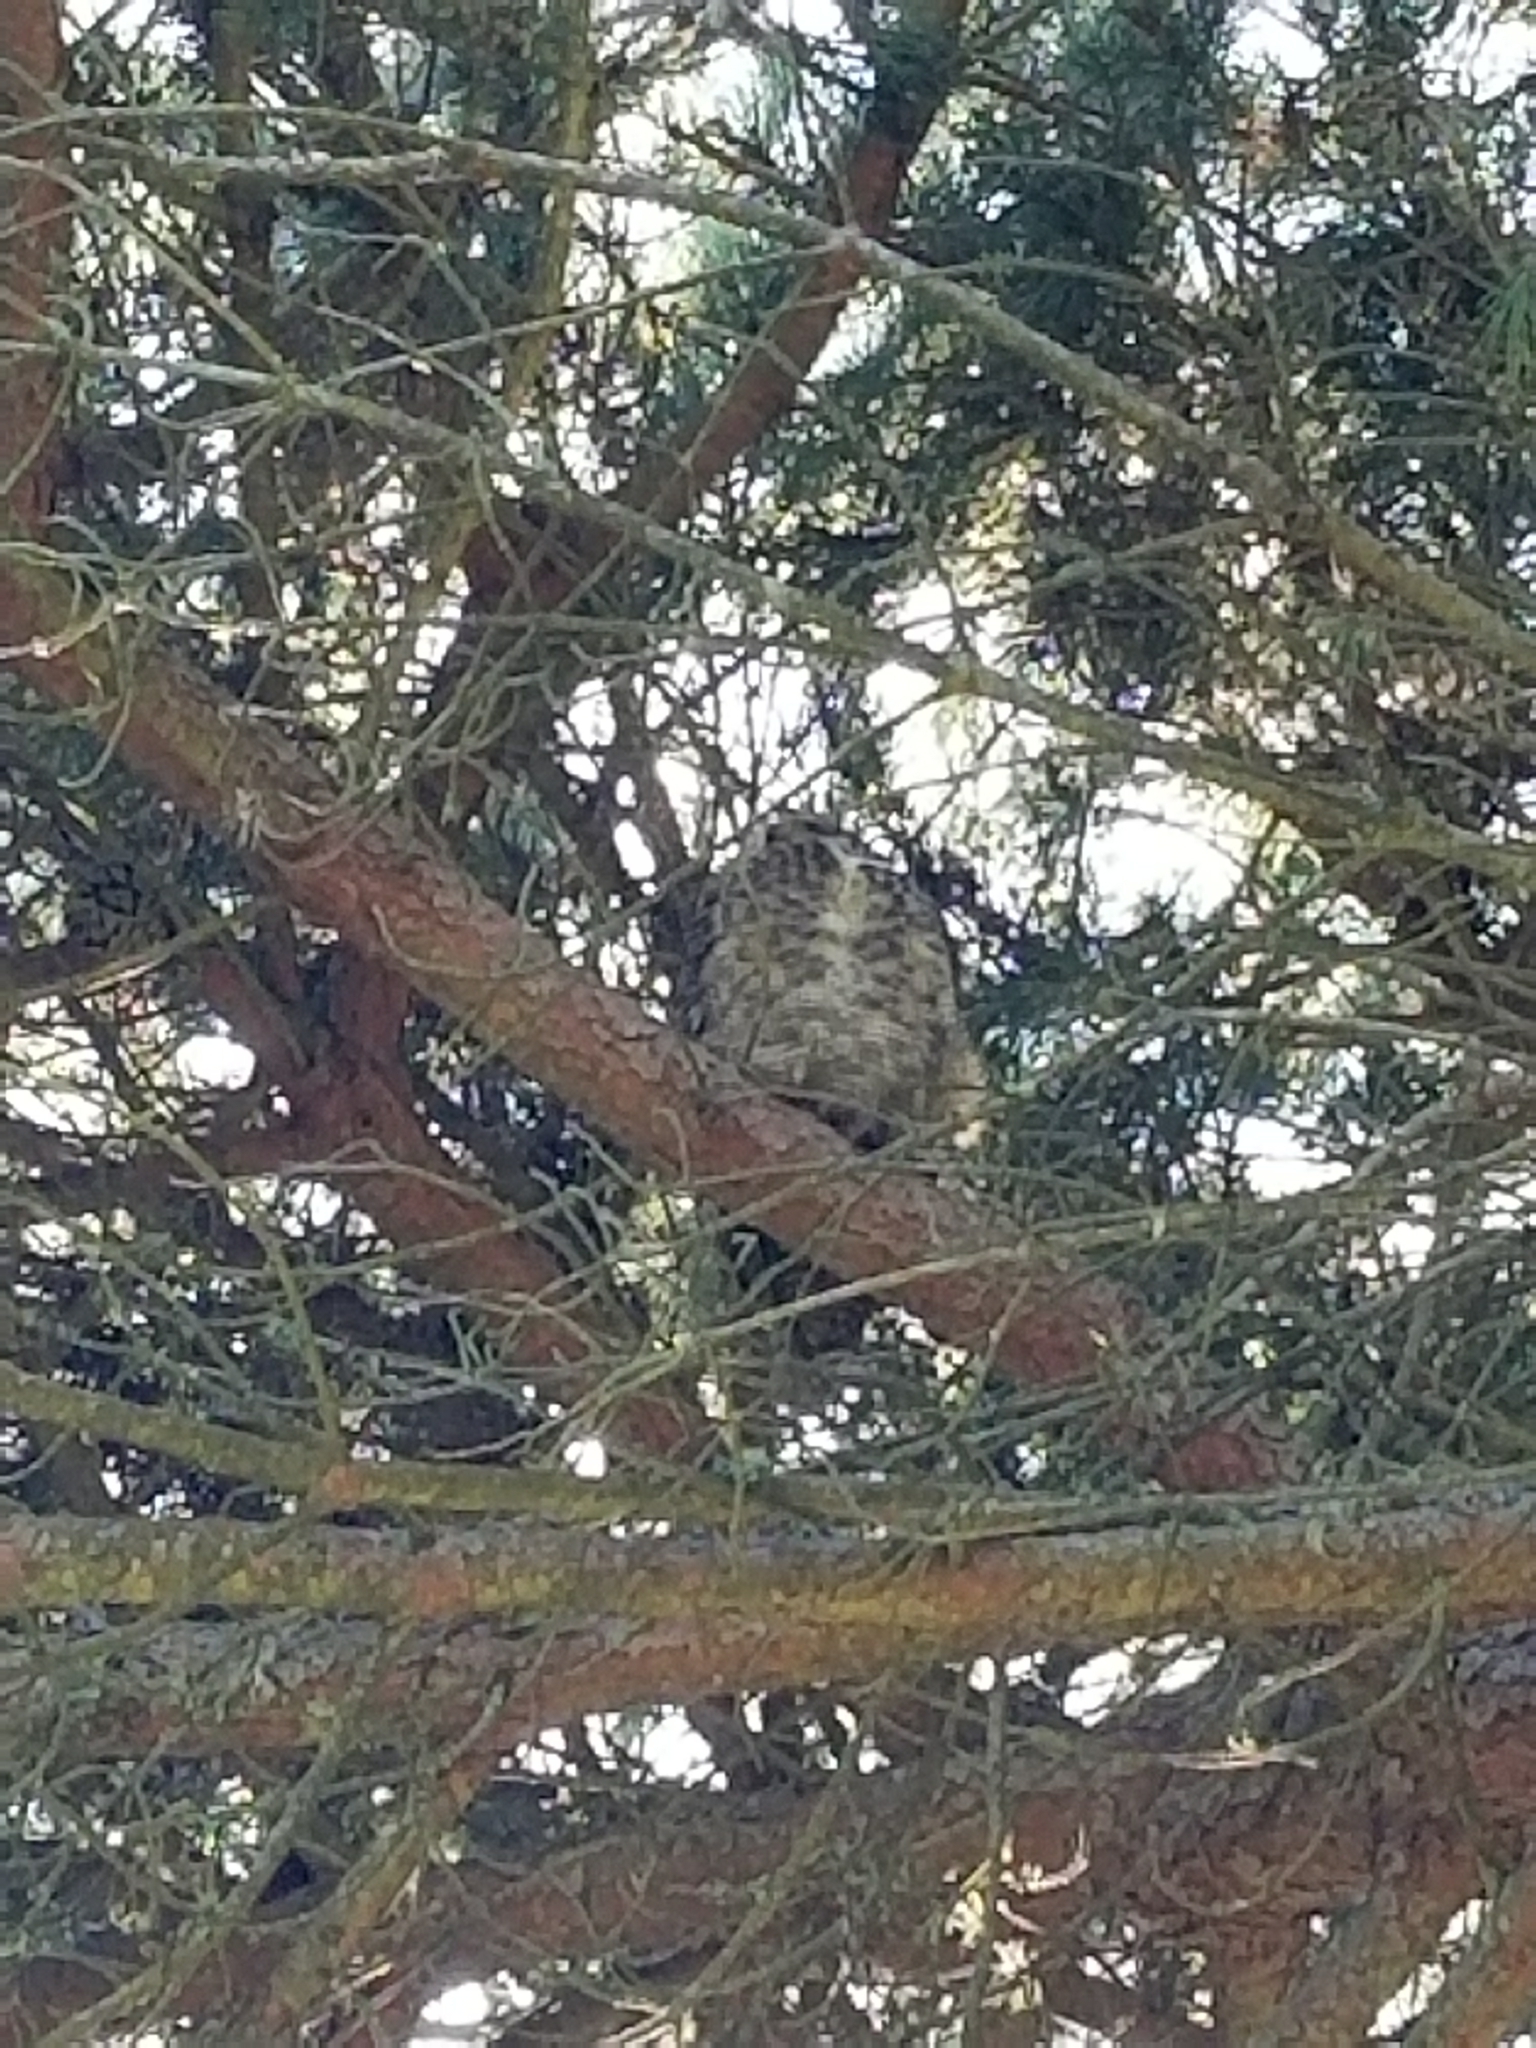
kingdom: Animalia
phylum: Chordata
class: Aves
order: Strigiformes
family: Strigidae
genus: Bubo
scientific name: Bubo virginianus
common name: Great horned owl
